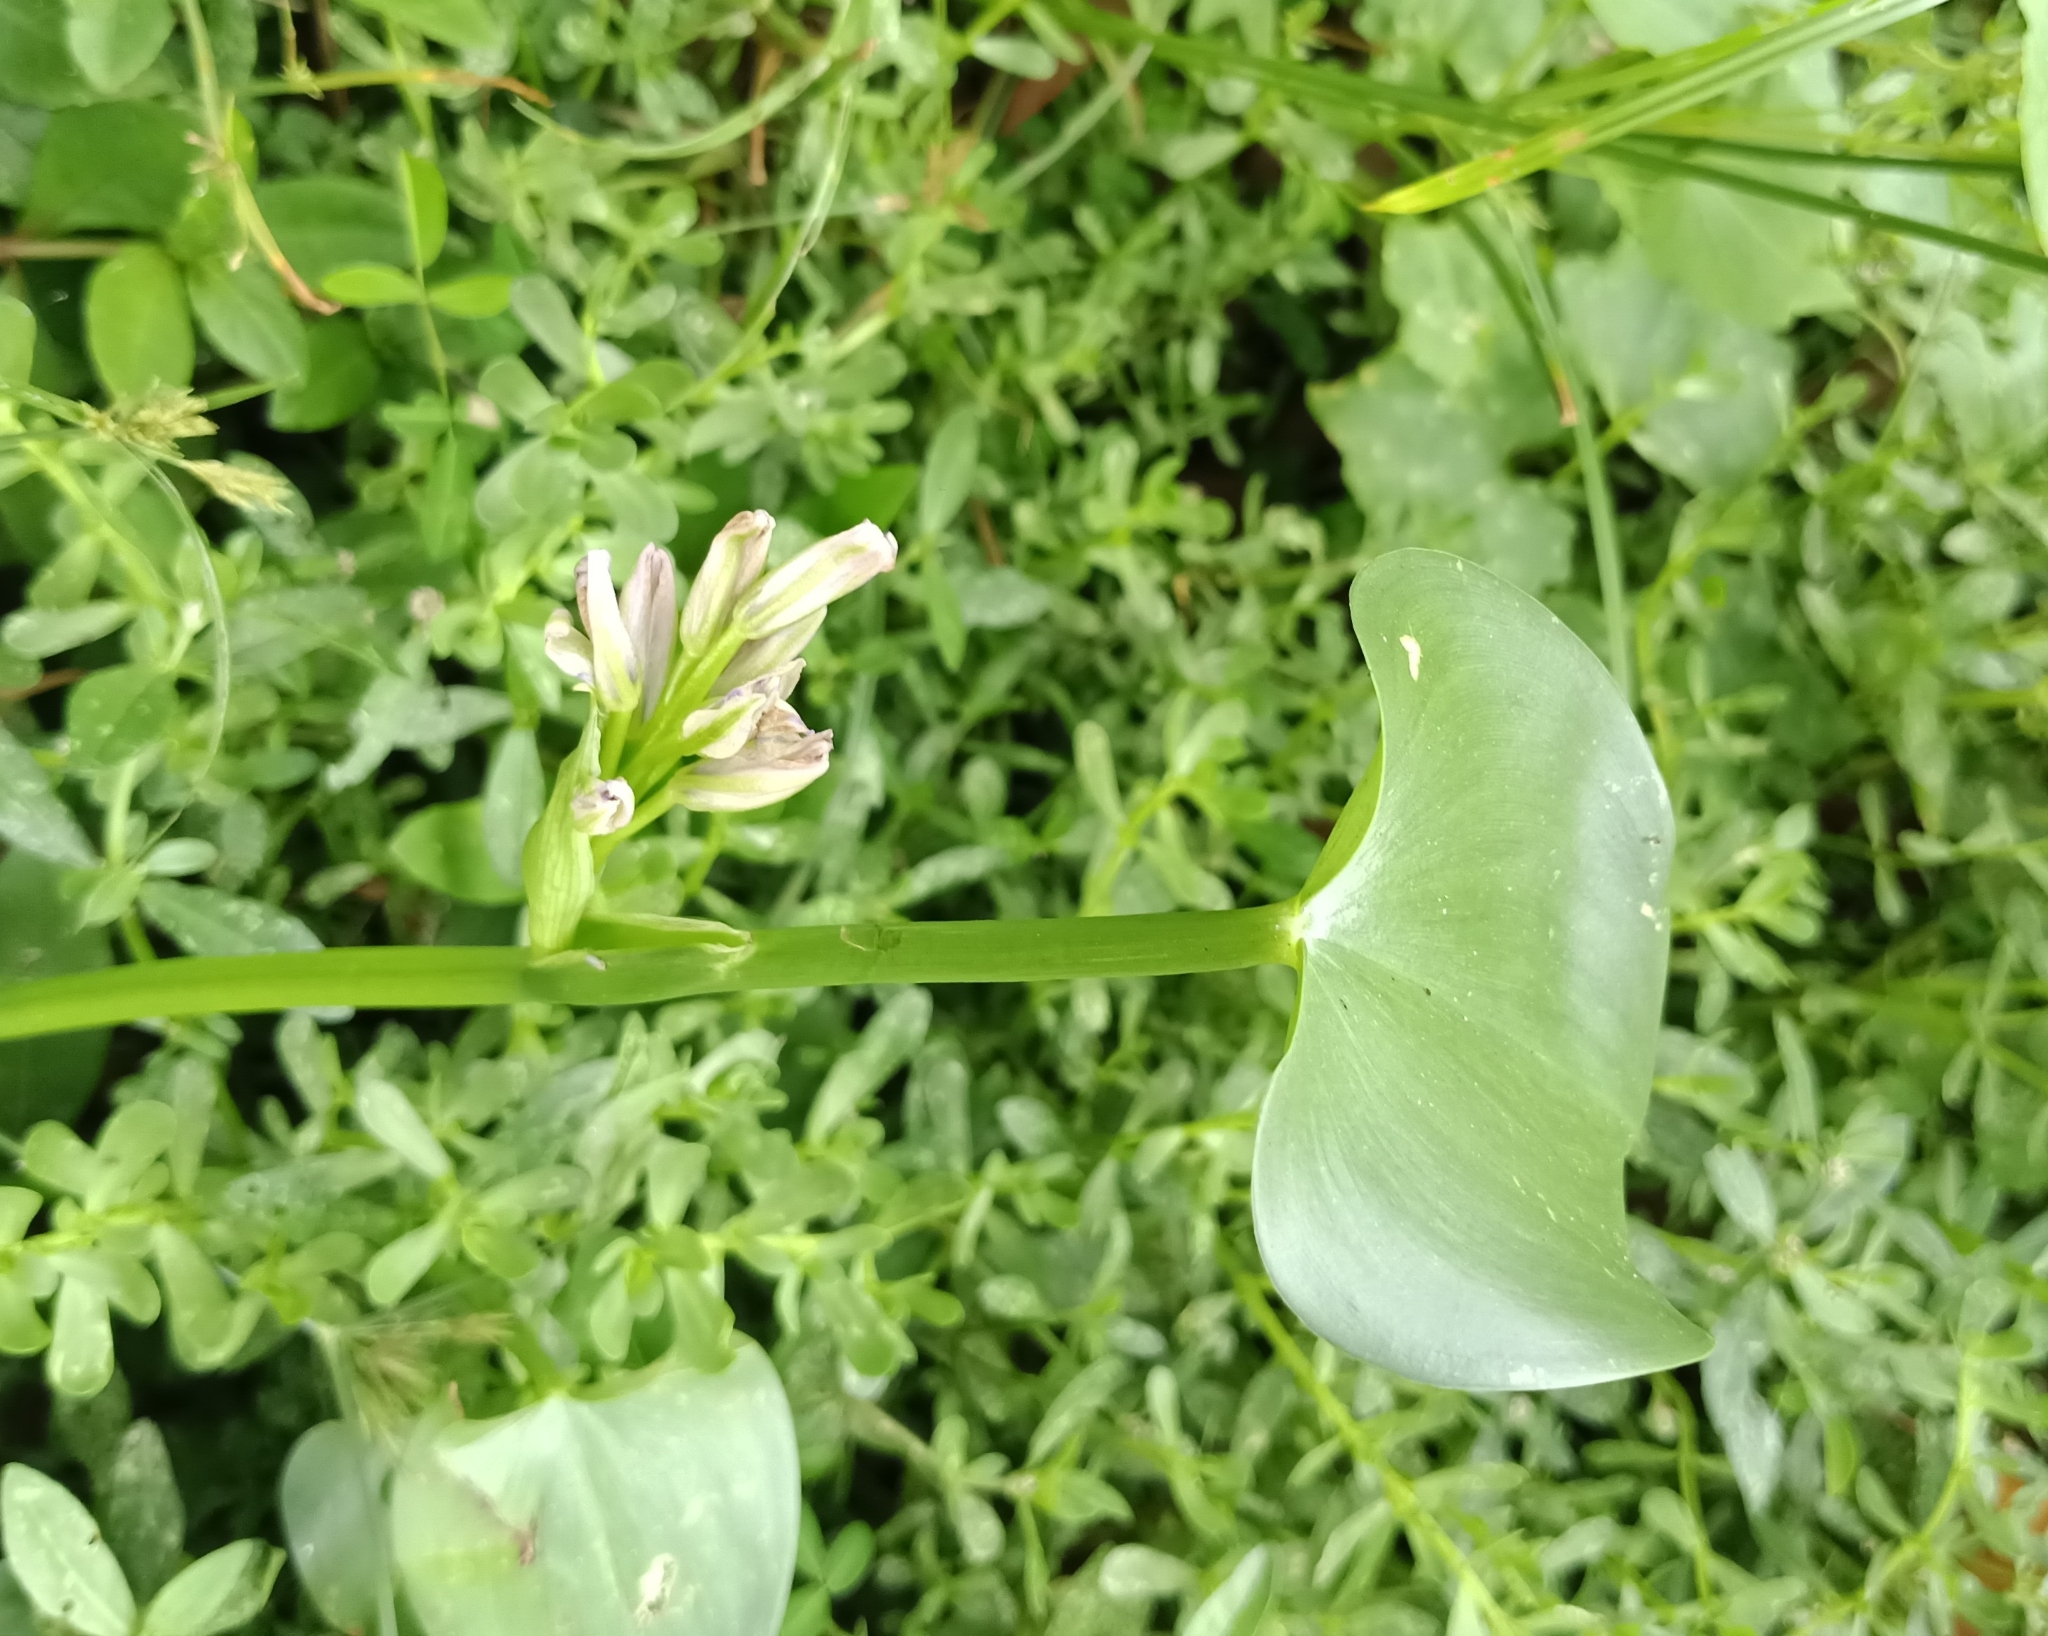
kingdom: Plantae
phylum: Tracheophyta
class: Liliopsida
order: Commelinales
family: Pontederiaceae
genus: Pontederia
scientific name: Pontederia vaginalis
